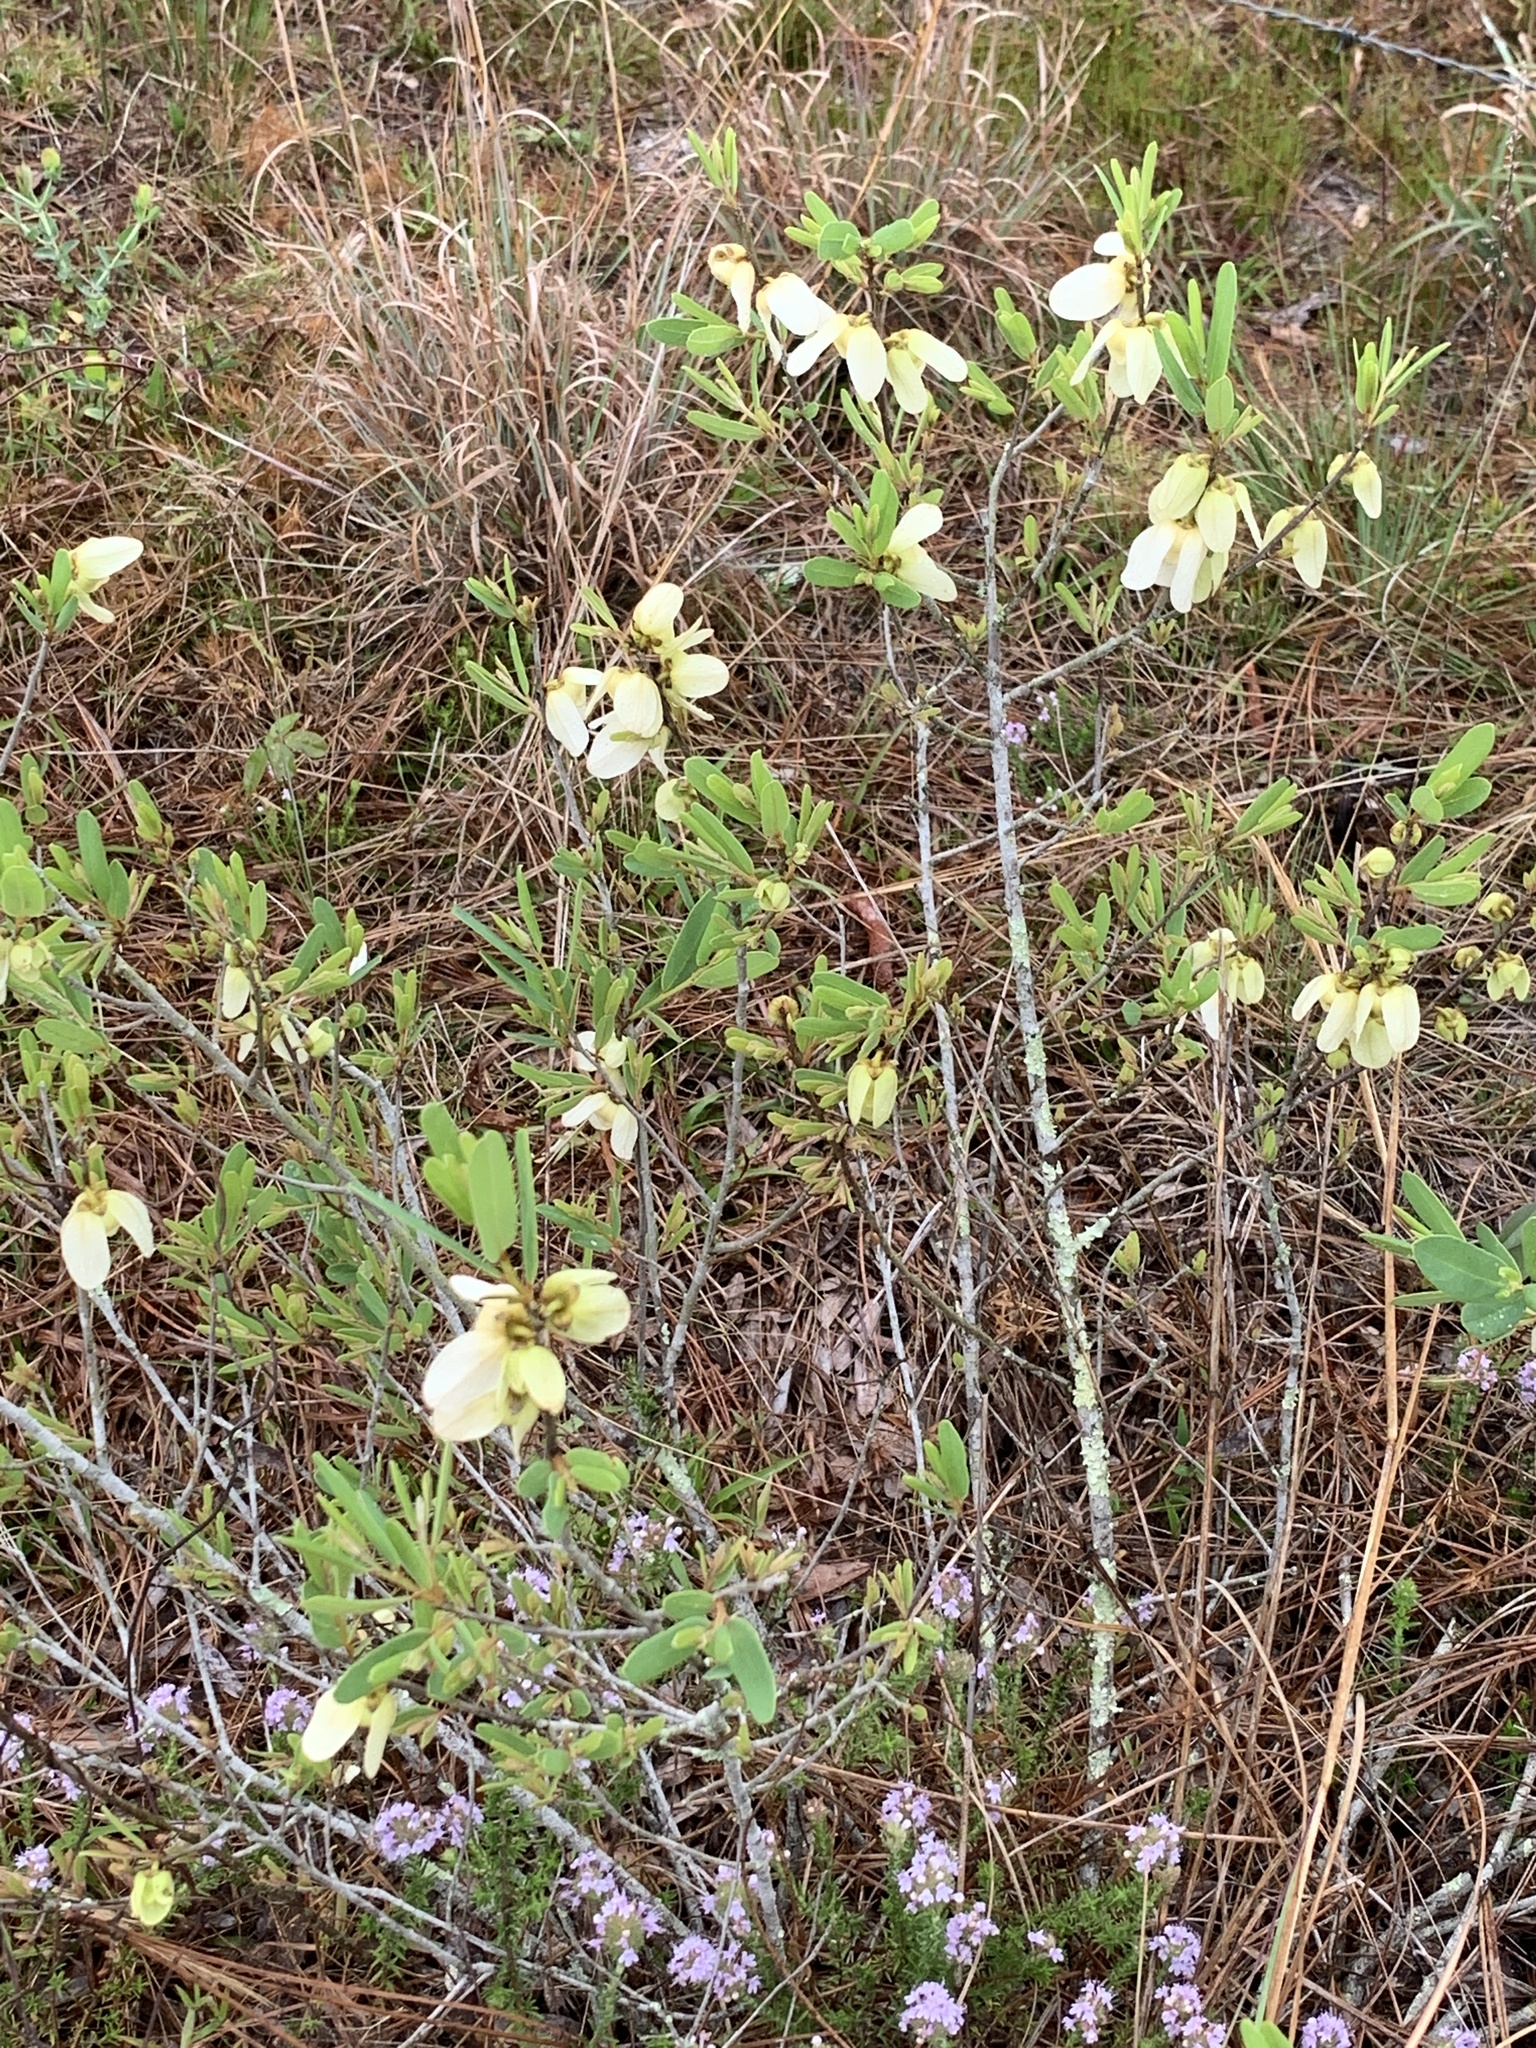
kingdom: Plantae
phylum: Tracheophyta
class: Magnoliopsida
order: Magnoliales
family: Annonaceae
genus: Asimina
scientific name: Asimina reticulata
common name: Flag pawpaw
